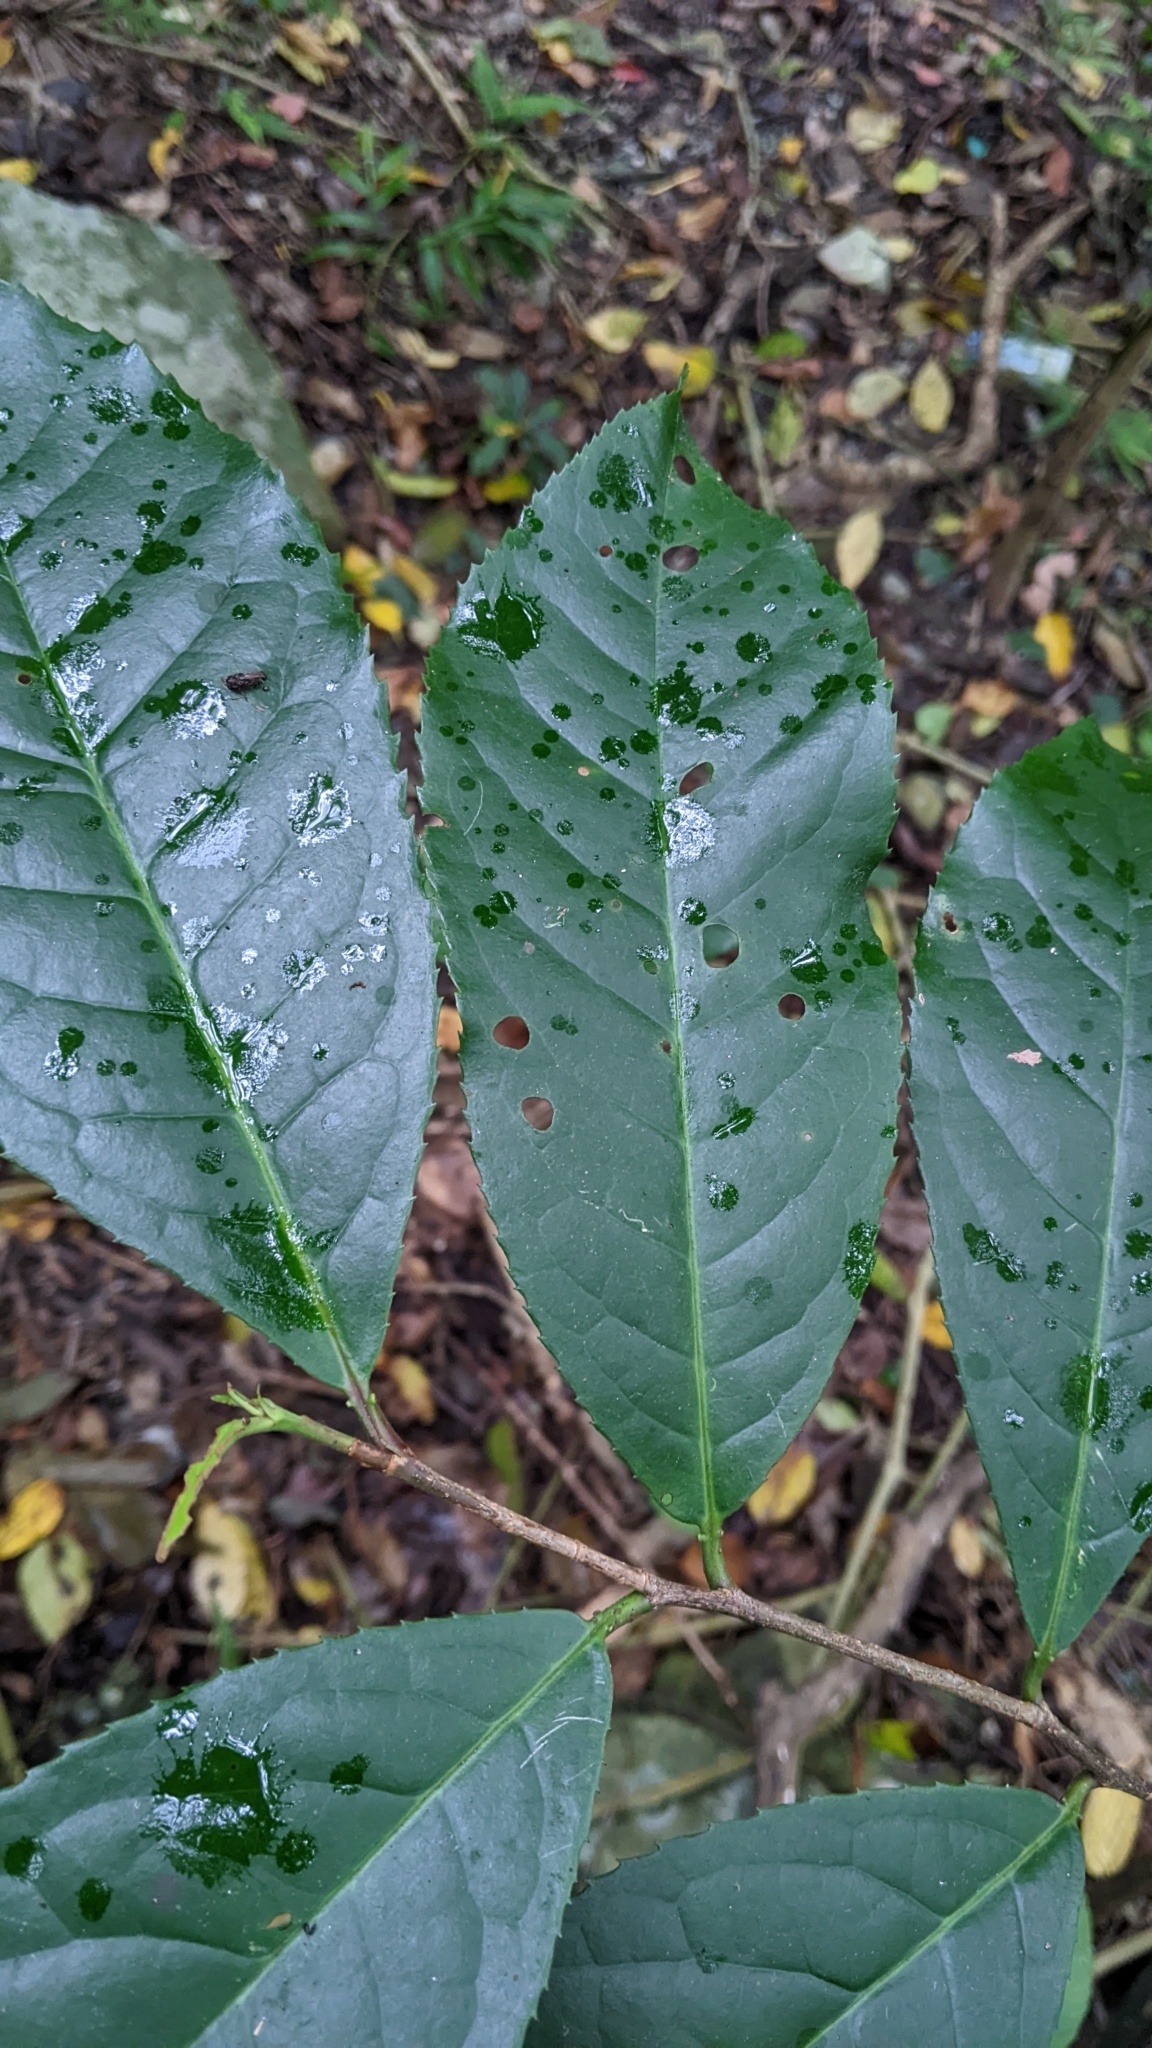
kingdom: Plantae
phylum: Tracheophyta
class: Magnoliopsida
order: Rosales
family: Rosaceae
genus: Prunus
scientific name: Prunus zippeliana
